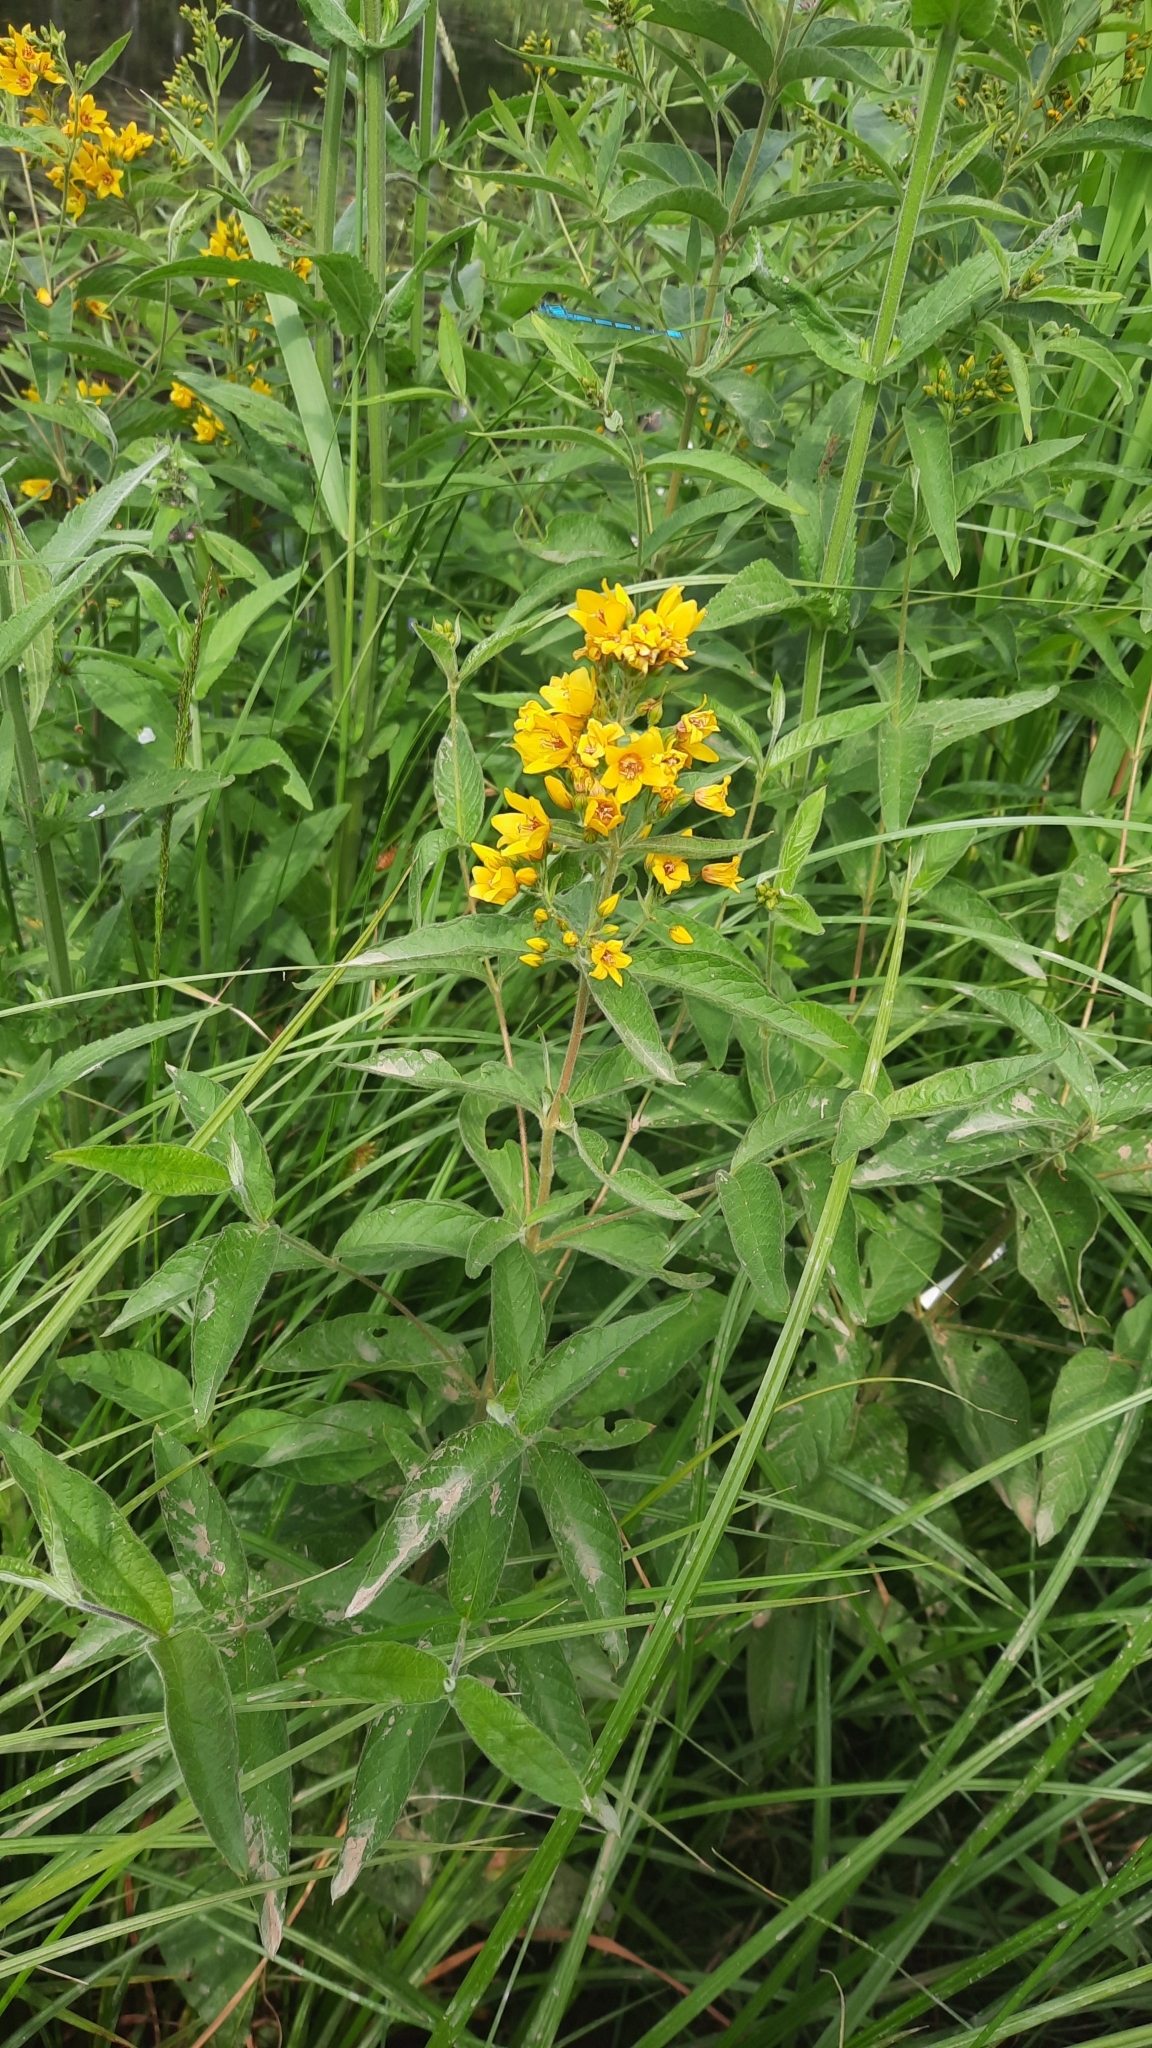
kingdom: Plantae
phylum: Tracheophyta
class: Magnoliopsida
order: Ericales
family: Primulaceae
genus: Lysimachia
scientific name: Lysimachia vulgaris
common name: Yellow loosestrife
